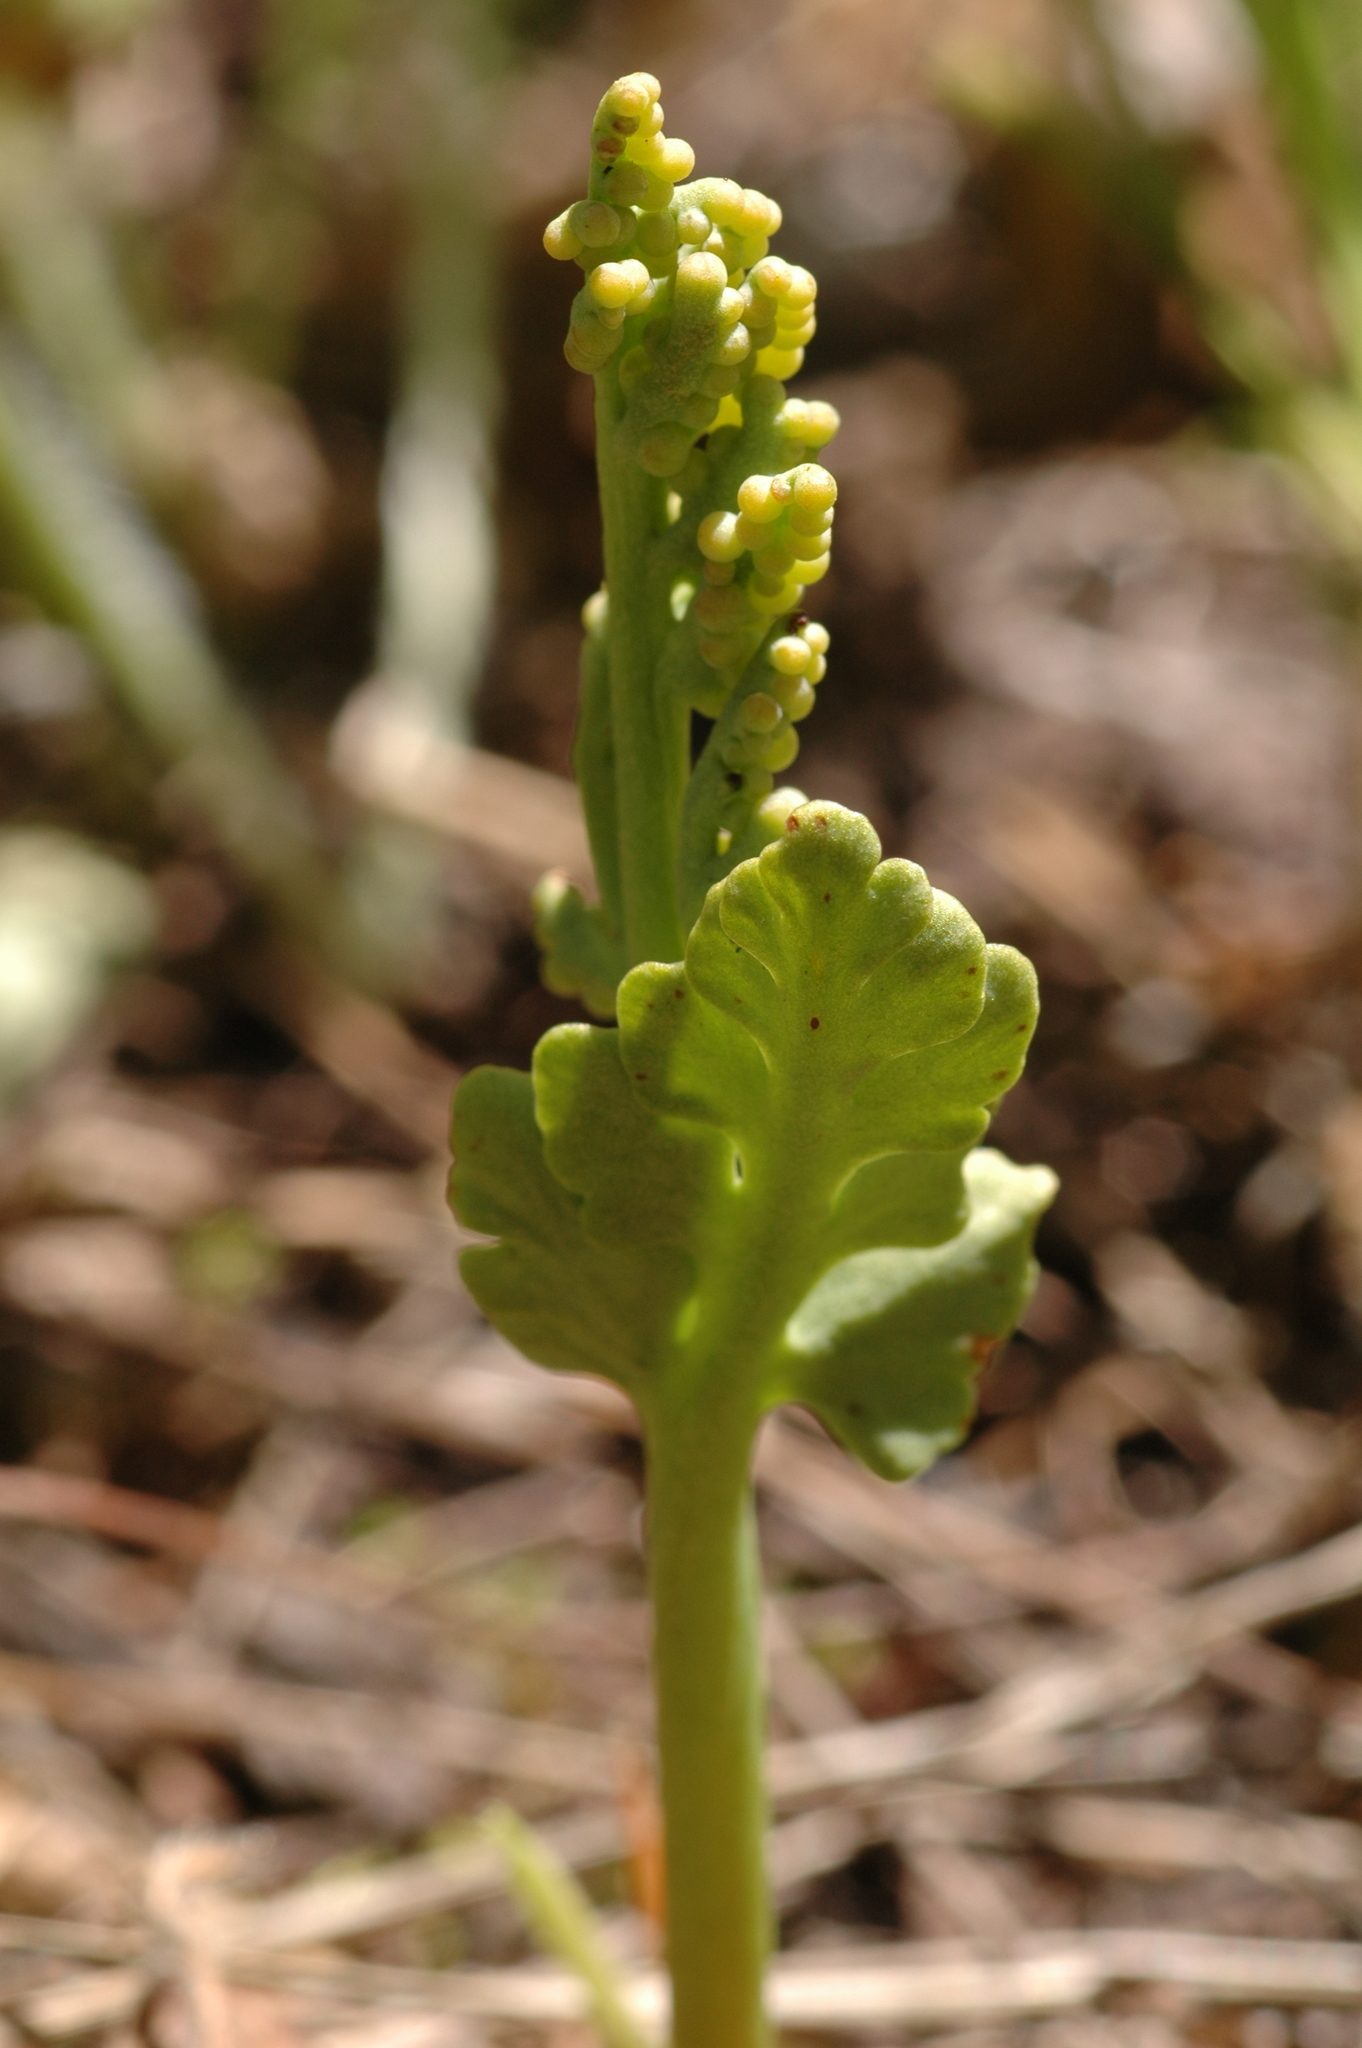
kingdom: Plantae
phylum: Tracheophyta
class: Polypodiopsida
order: Ophioglossales
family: Ophioglossaceae
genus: Botrychium
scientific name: Botrychium hesperium
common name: Western moonwort
